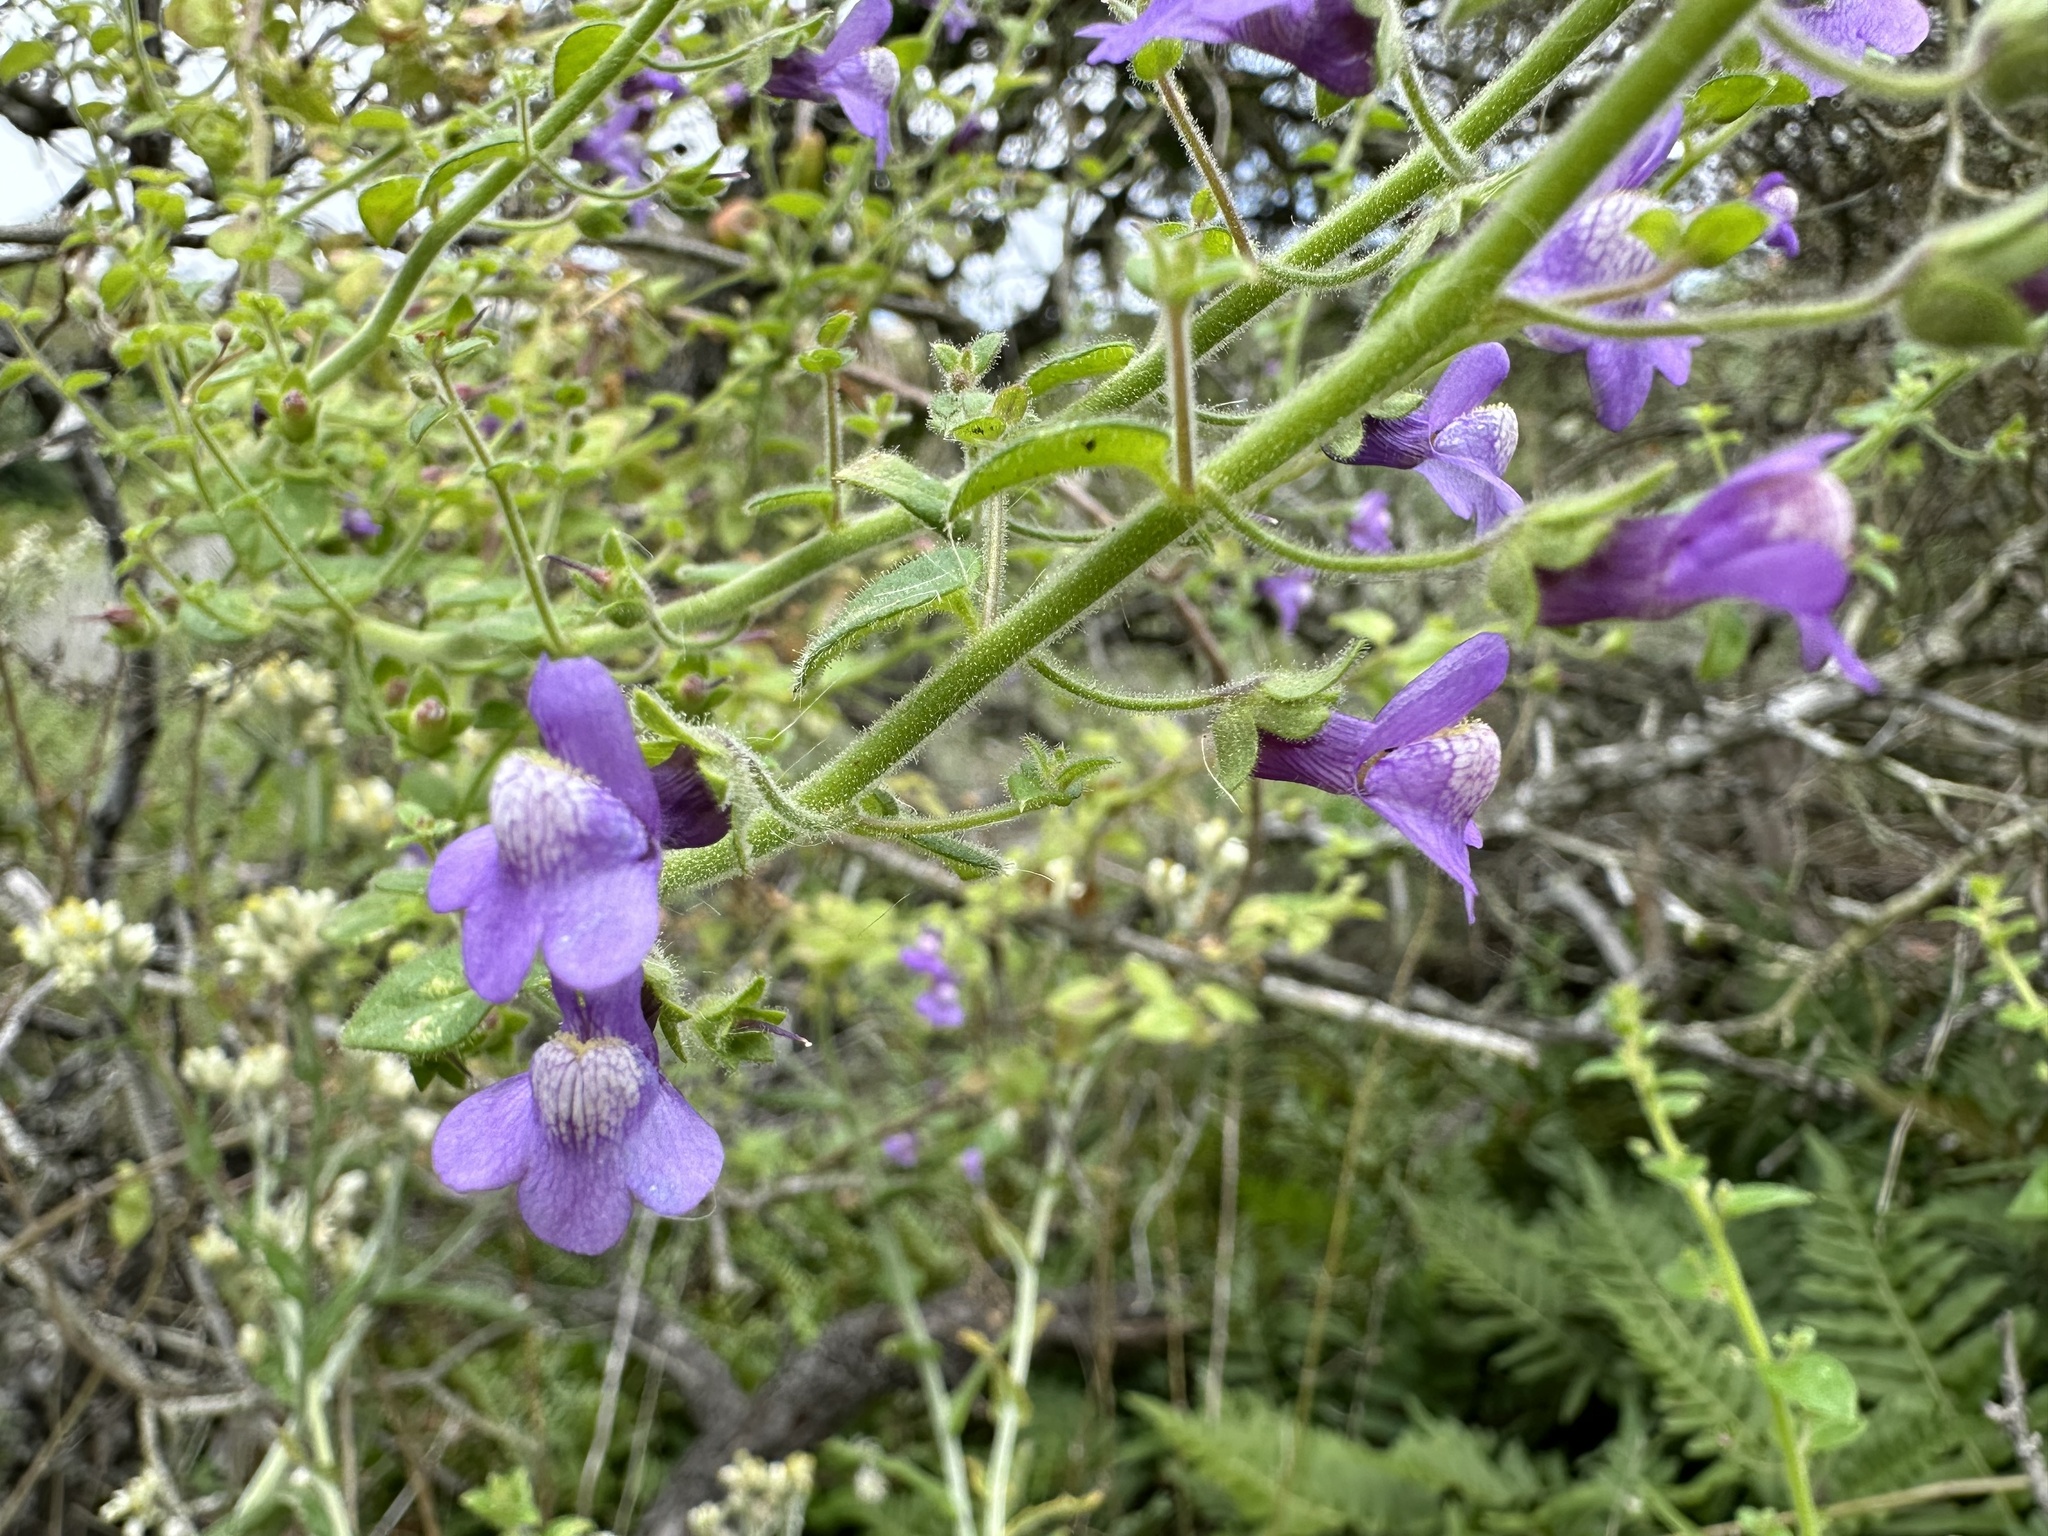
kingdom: Plantae
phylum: Tracheophyta
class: Magnoliopsida
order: Lamiales
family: Plantaginaceae
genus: Sairocarpus
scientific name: Sairocarpus nuttallianus
